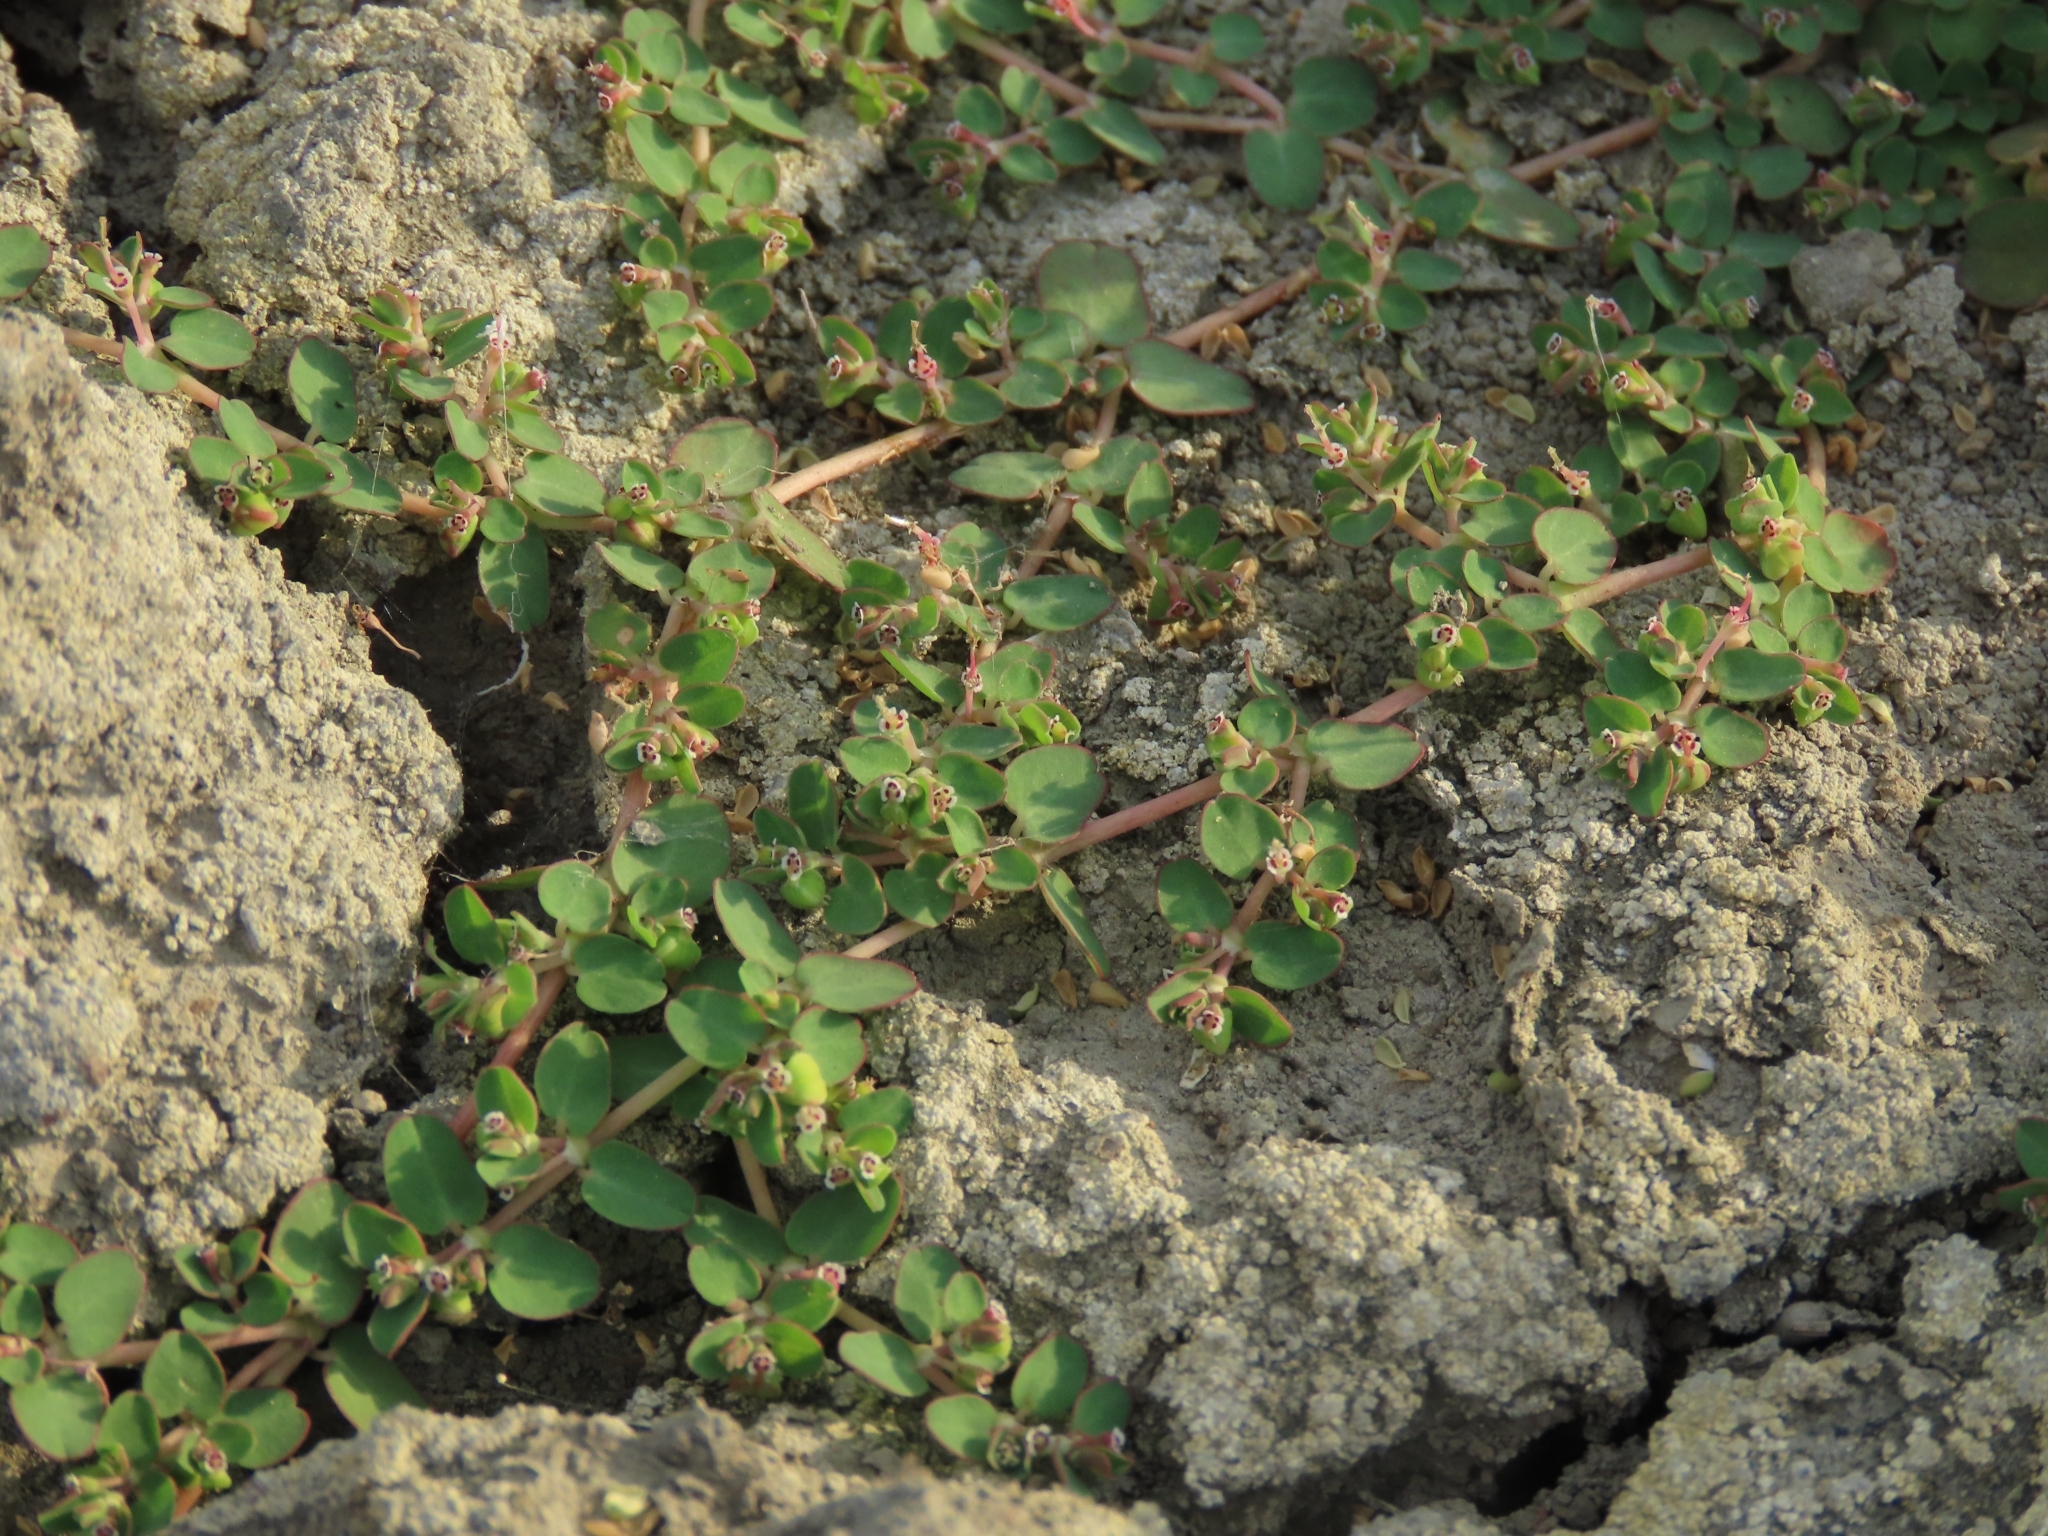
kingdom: Plantae
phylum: Tracheophyta
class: Magnoliopsida
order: Malpighiales
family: Euphorbiaceae
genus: Euphorbia
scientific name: Euphorbia serpens
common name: Matted sandmat
